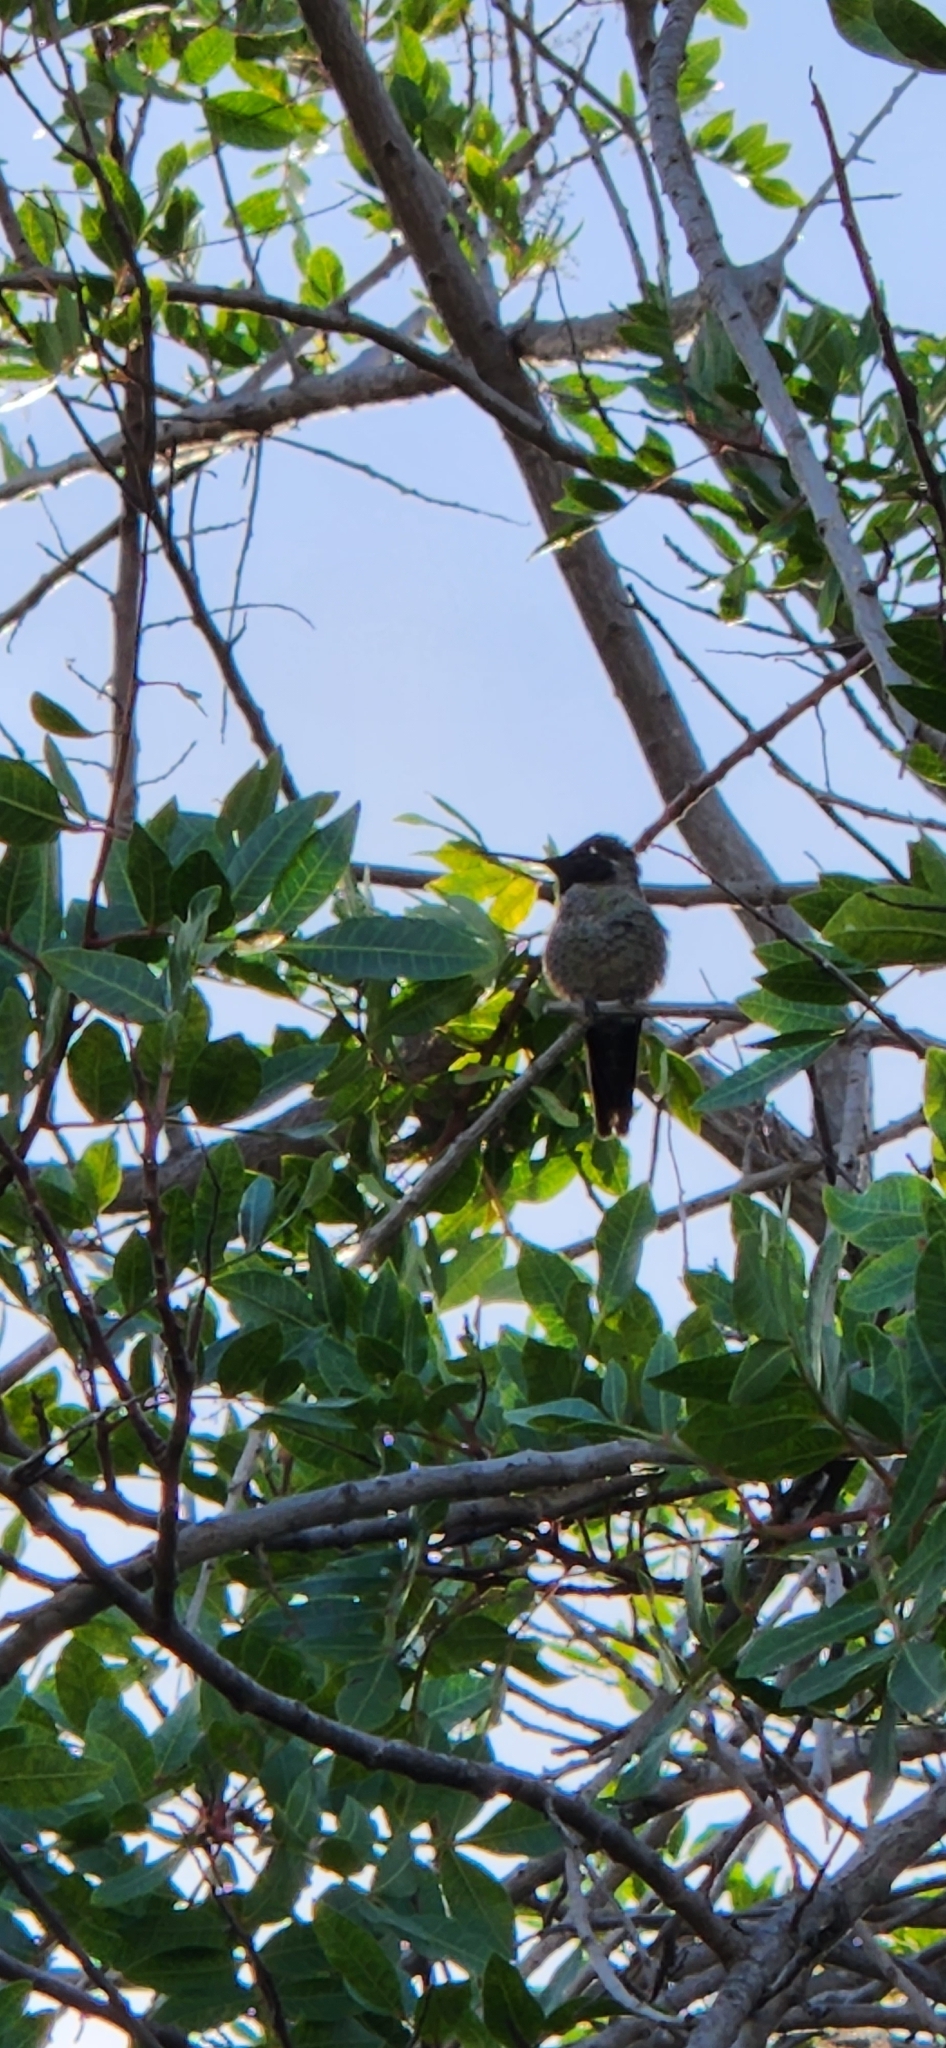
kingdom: Animalia
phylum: Chordata
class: Aves
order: Apodiformes
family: Trochilidae
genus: Calypte
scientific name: Calypte anna
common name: Anna's hummingbird
